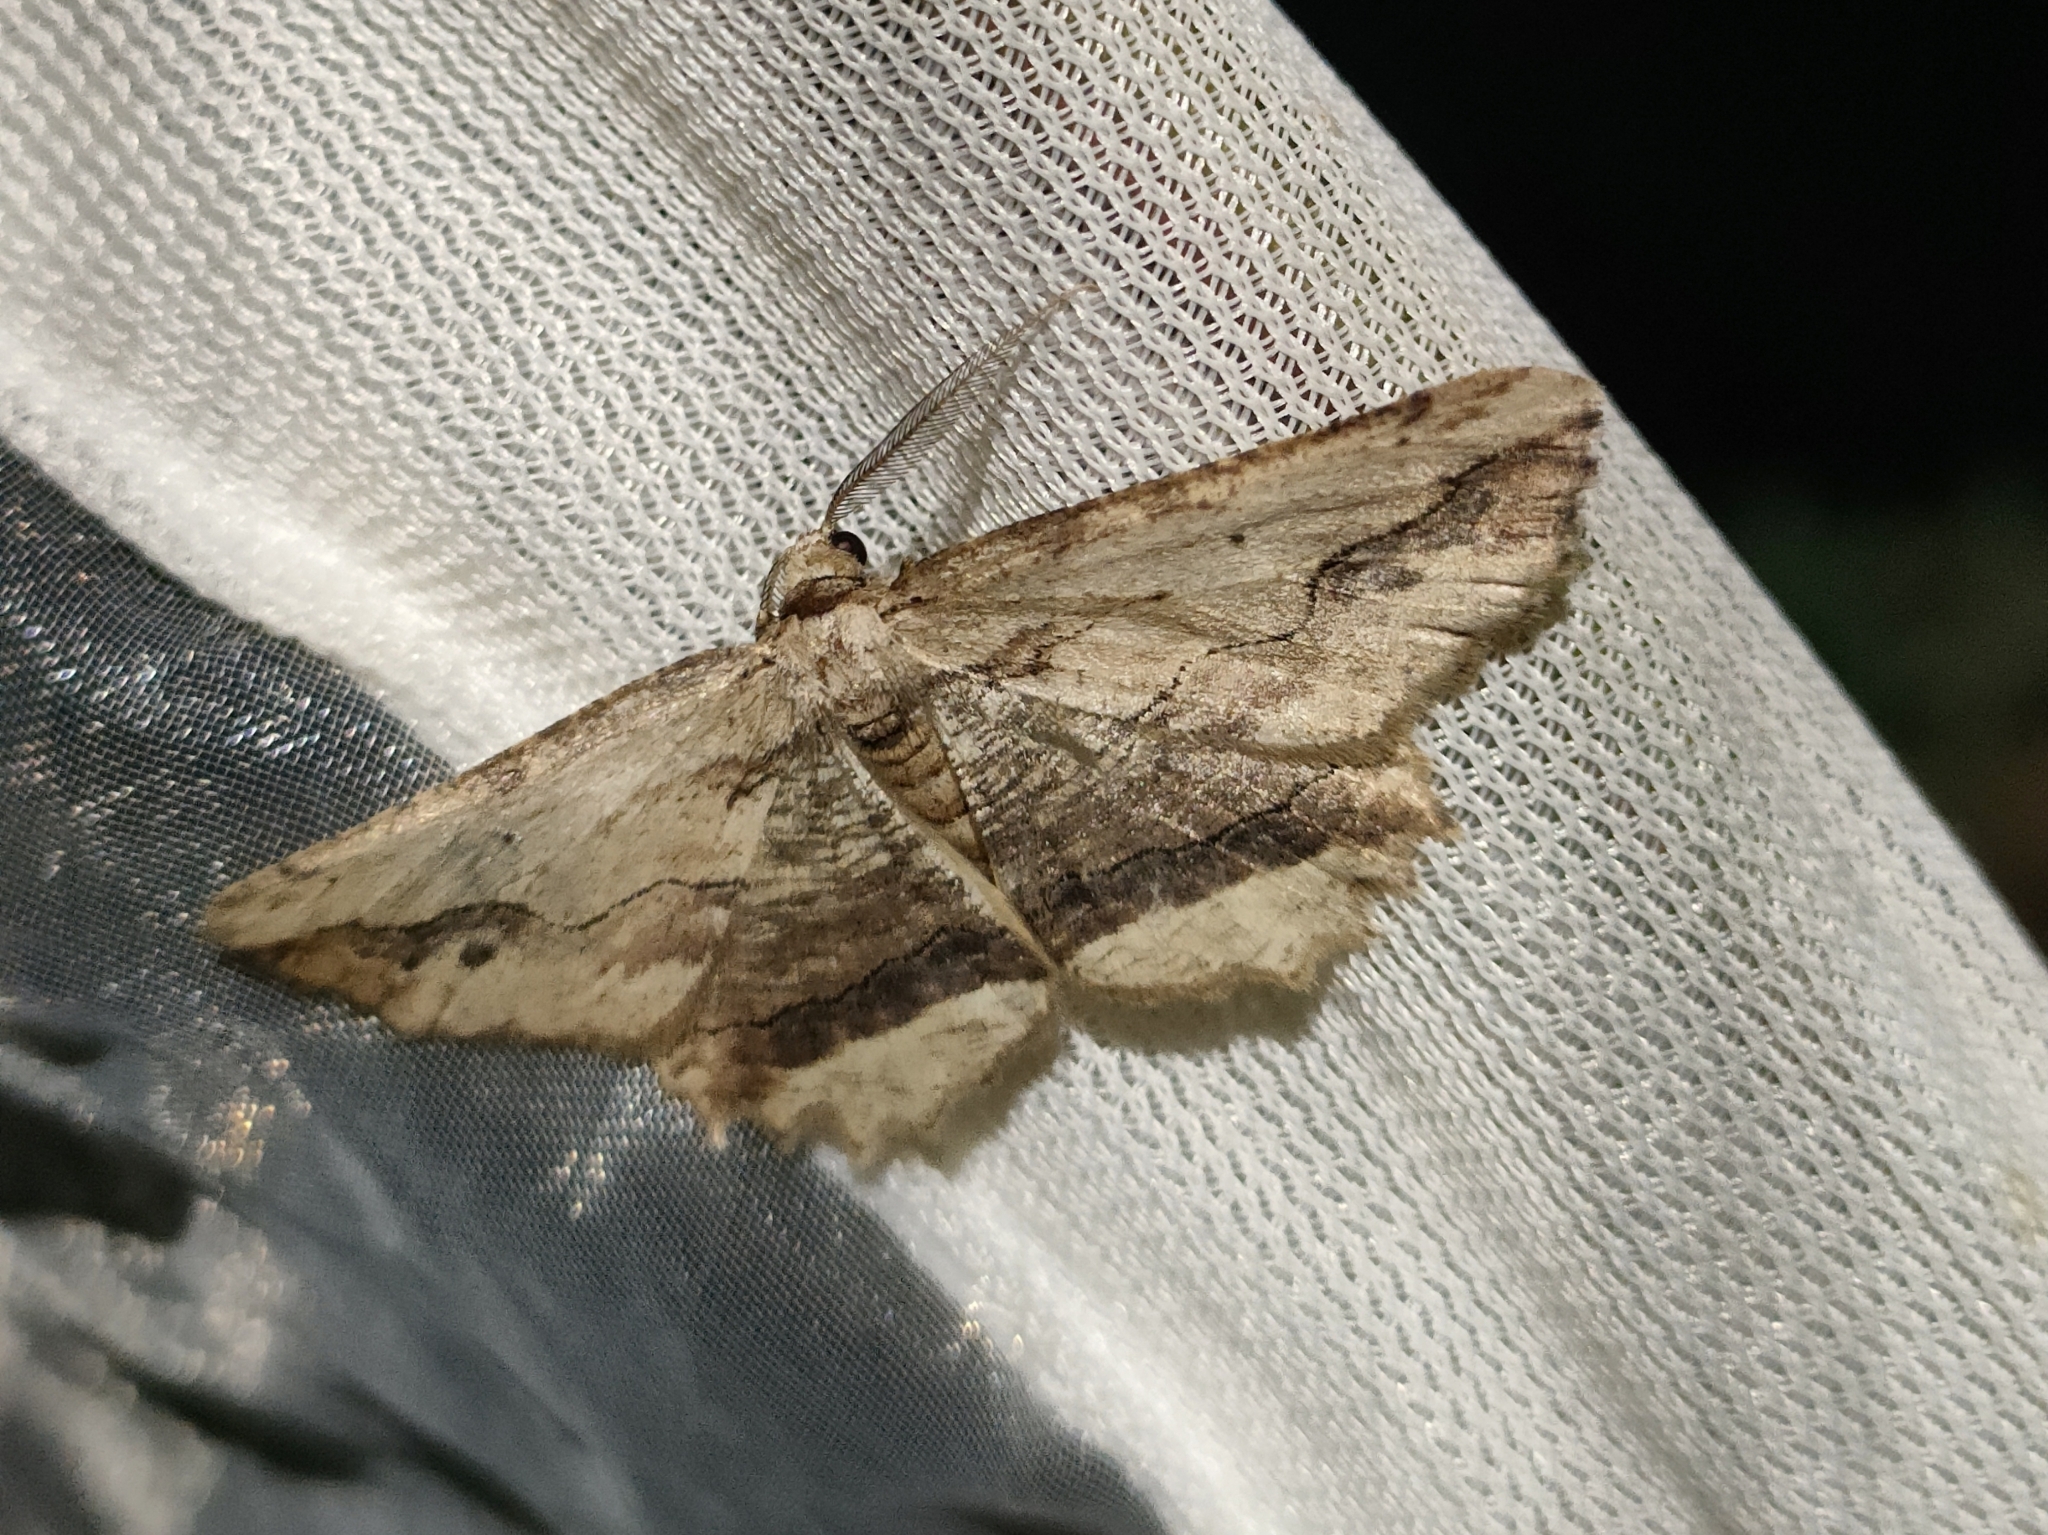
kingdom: Animalia
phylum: Arthropoda
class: Insecta
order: Lepidoptera
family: Geometridae
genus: Menophra
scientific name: Menophra abruptaria
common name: Waved umber
